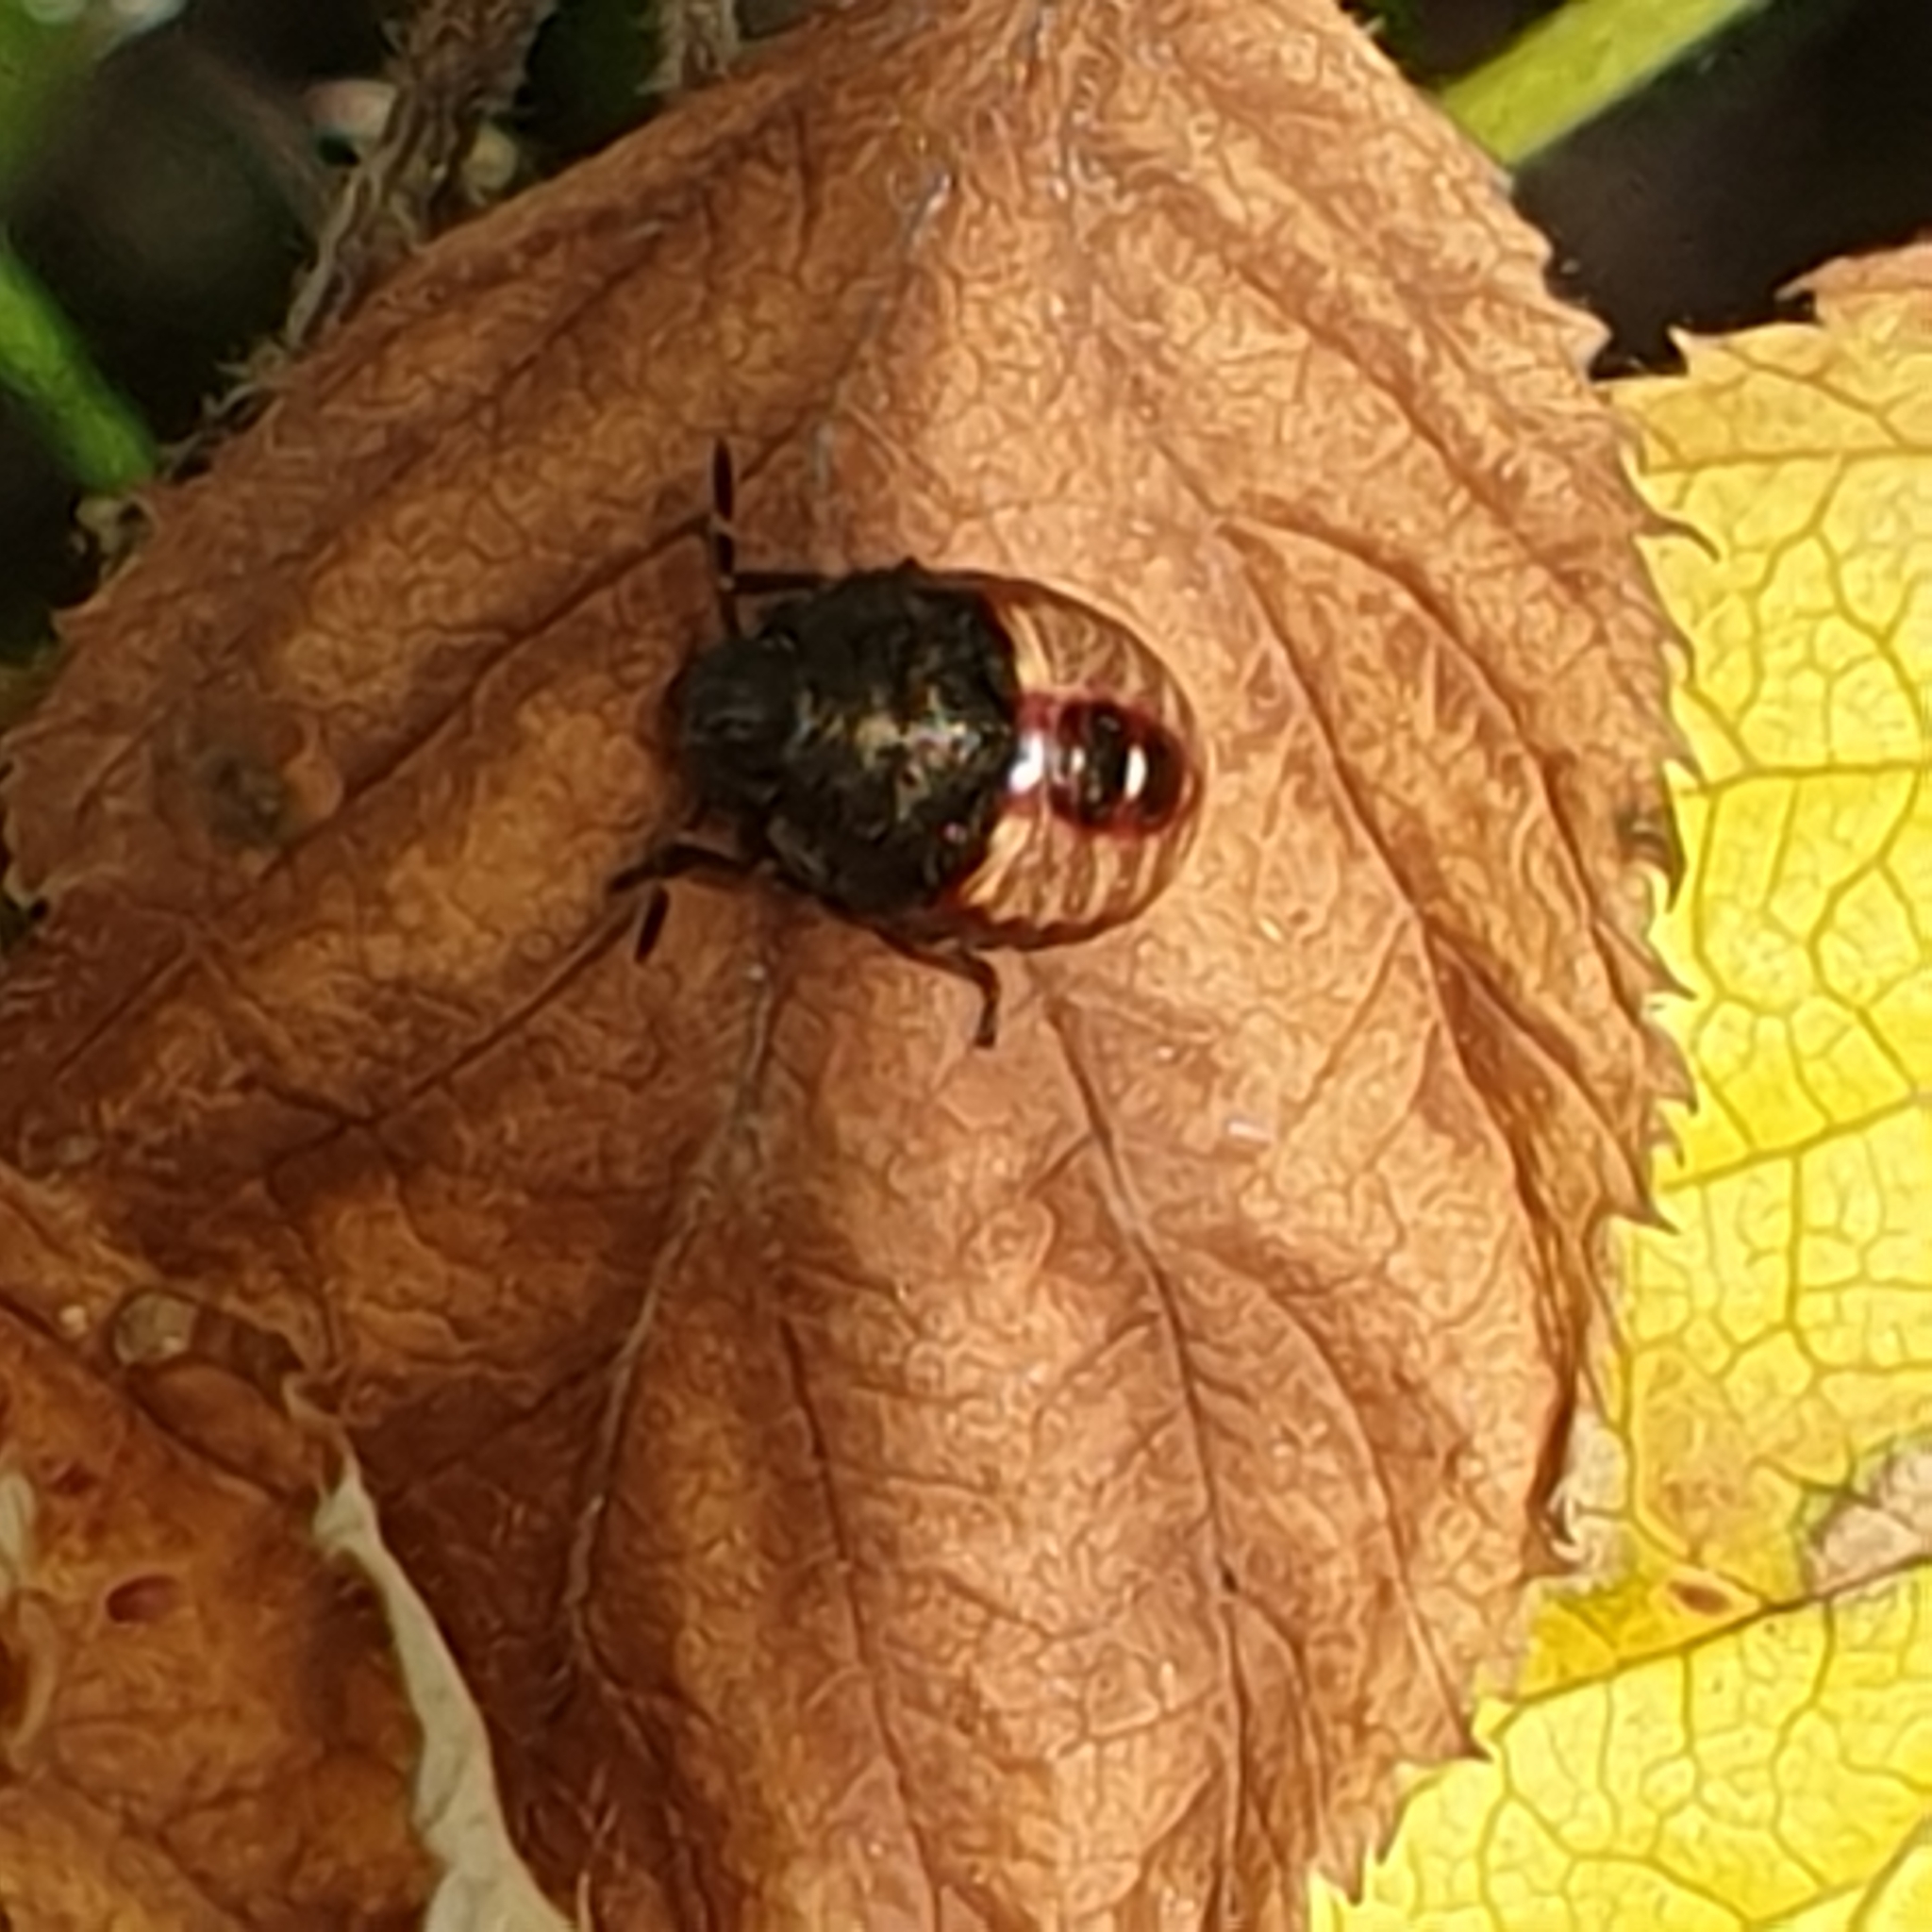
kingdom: Animalia
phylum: Arthropoda
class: Insecta
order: Hemiptera
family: Pentatomidae
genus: Holcostethus
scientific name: Holcostethus strictus
